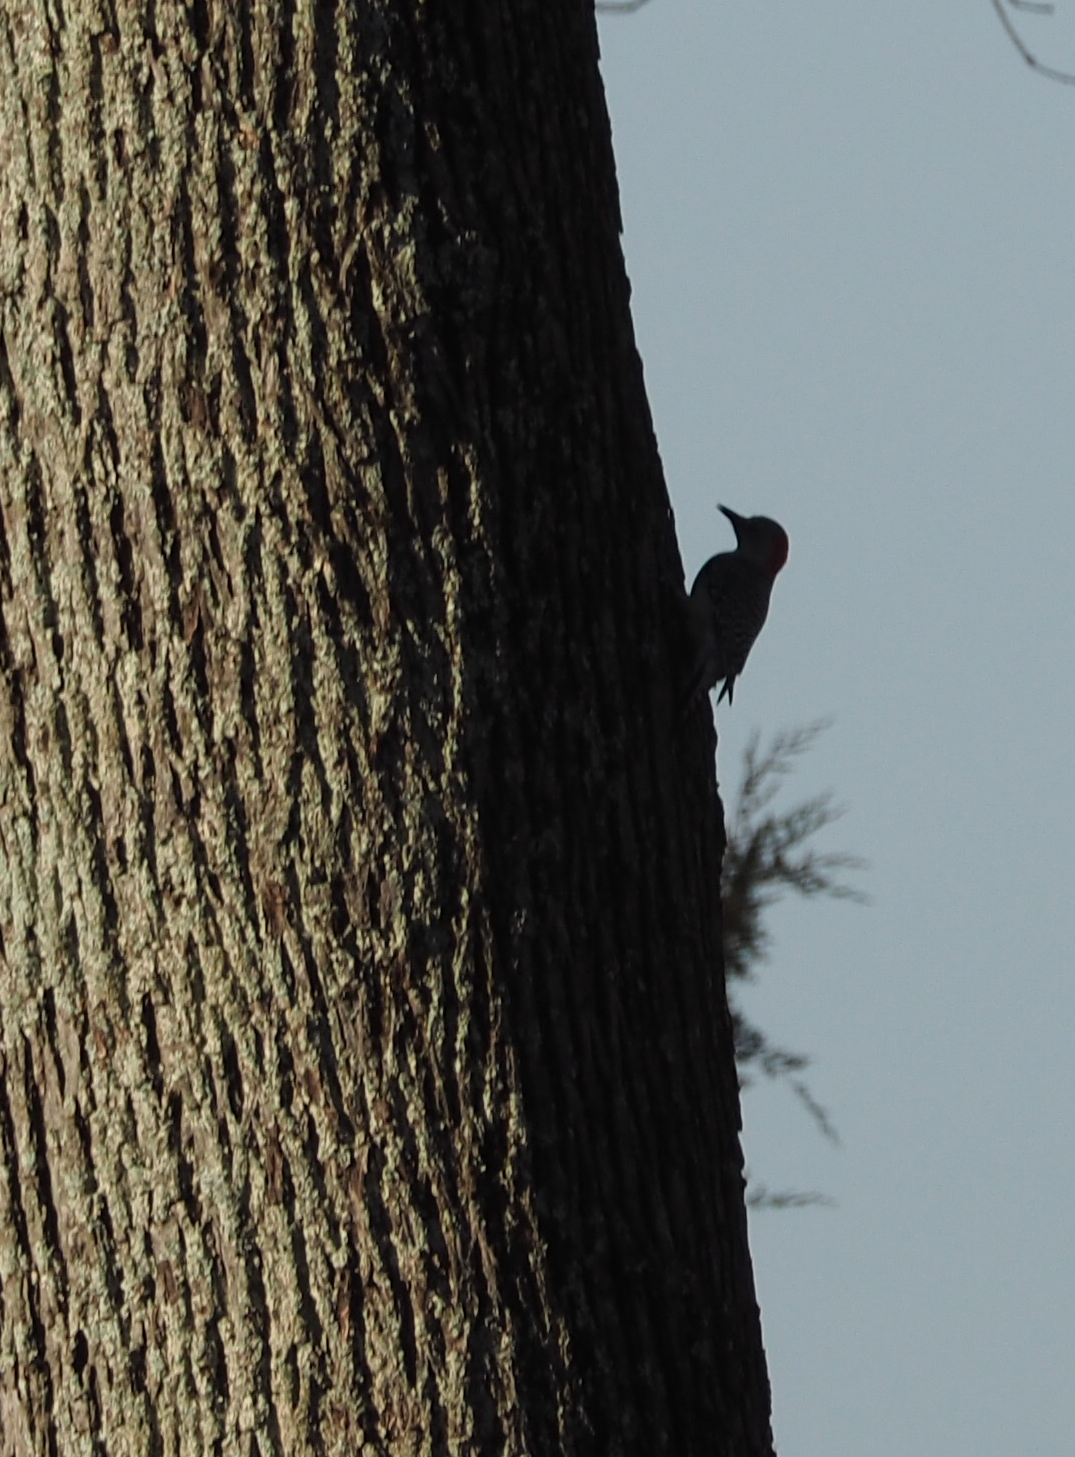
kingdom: Animalia
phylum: Chordata
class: Aves
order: Piciformes
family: Picidae
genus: Melanerpes
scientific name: Melanerpes carolinus
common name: Red-bellied woodpecker
